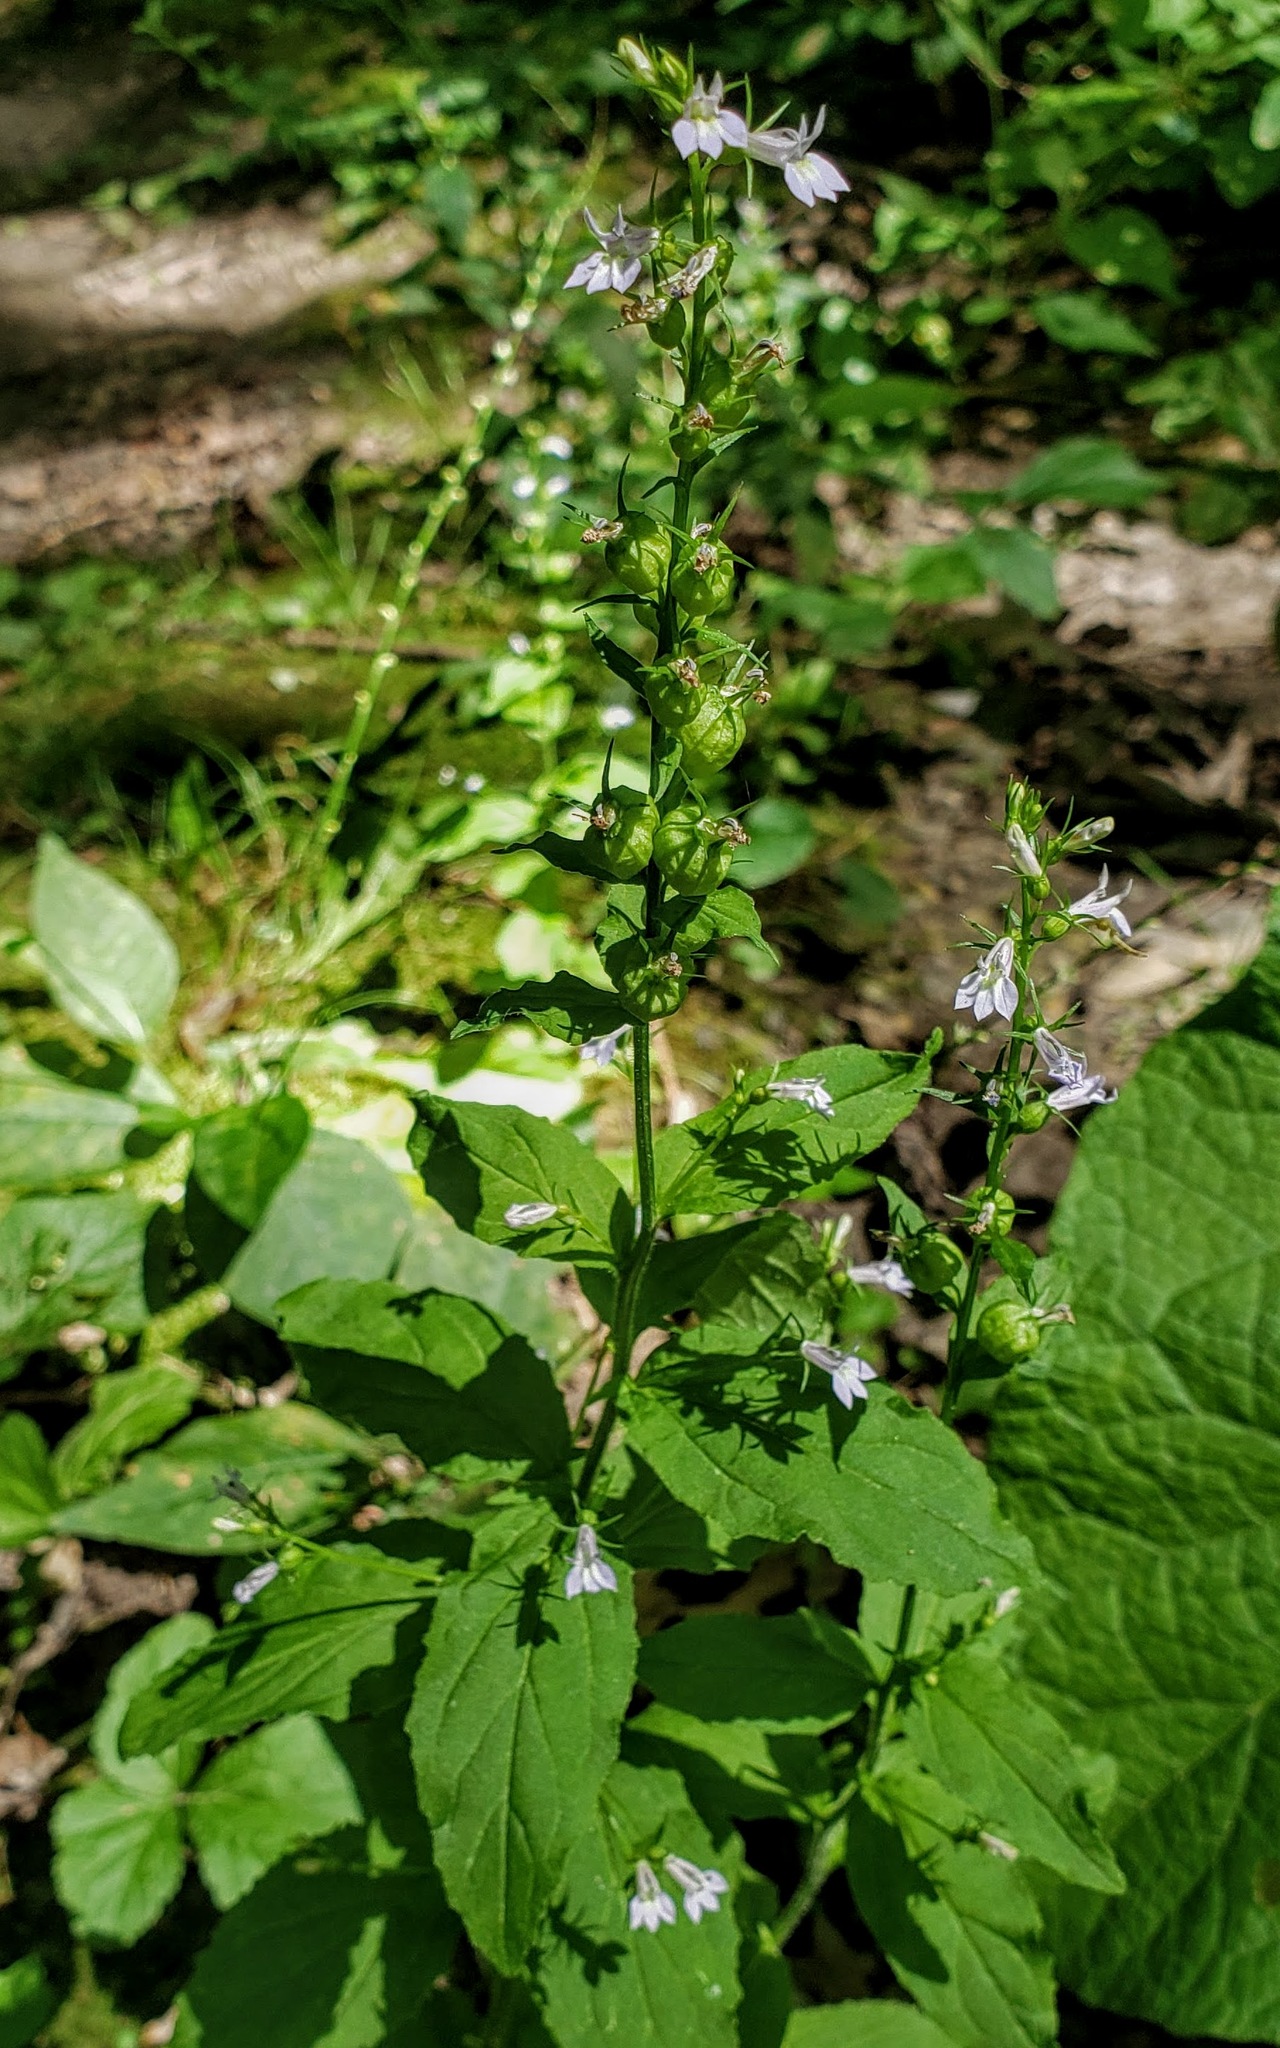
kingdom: Plantae
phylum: Tracheophyta
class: Magnoliopsida
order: Asterales
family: Campanulaceae
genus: Lobelia
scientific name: Lobelia inflata
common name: Indian tobacco
